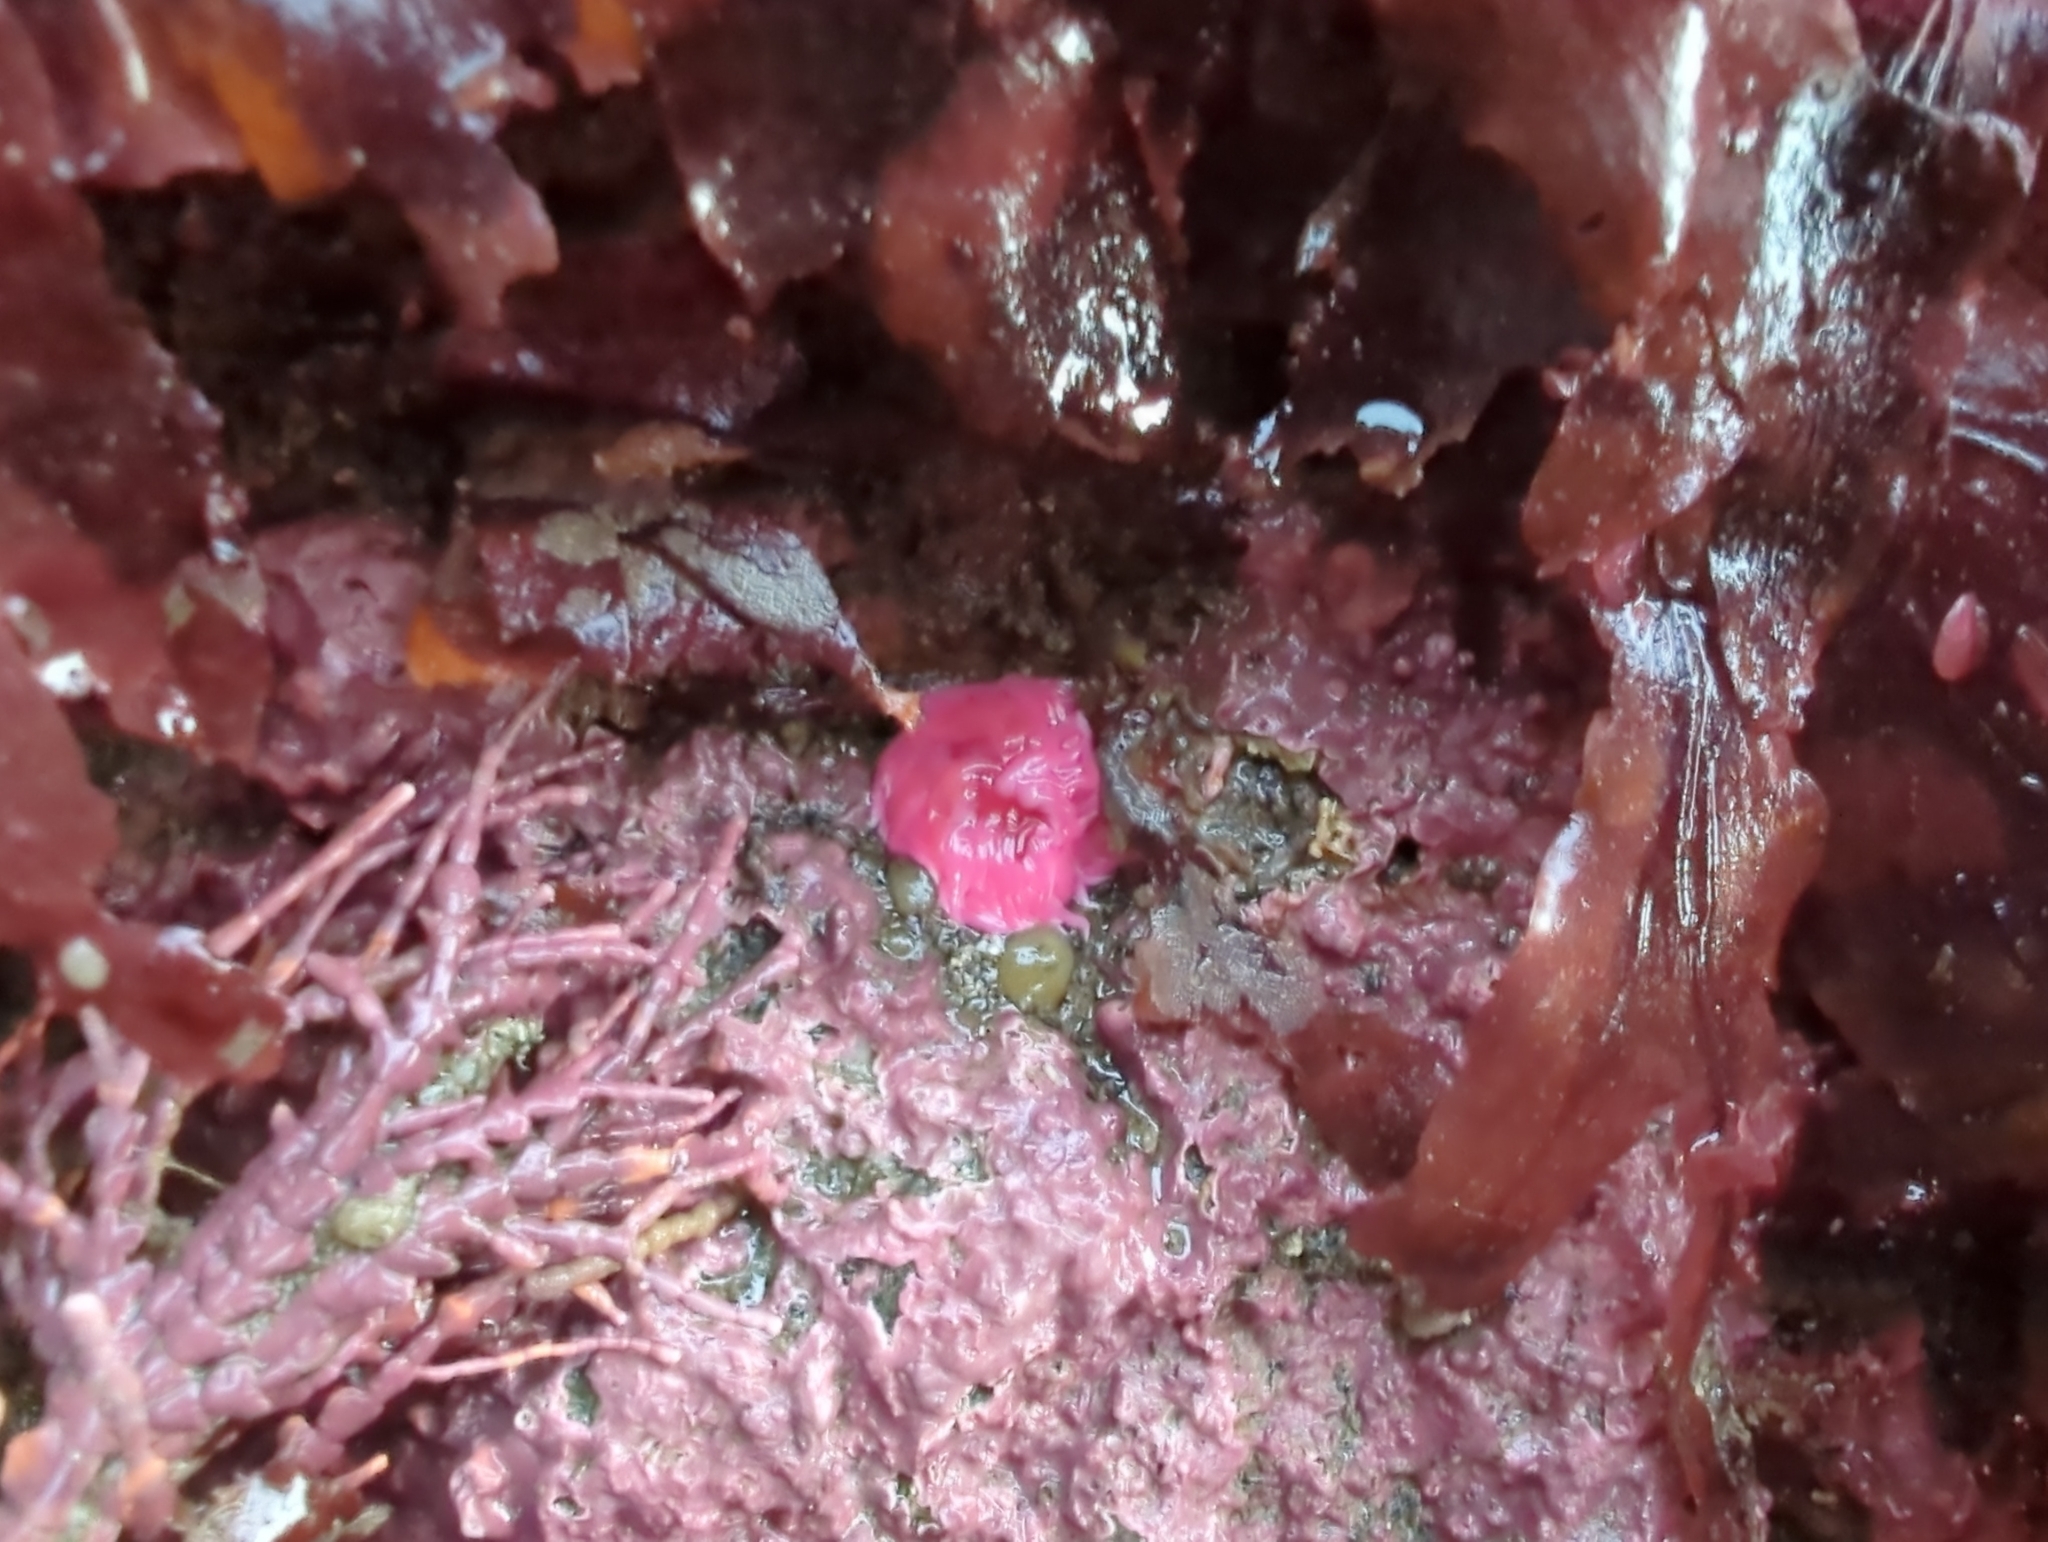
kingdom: Animalia
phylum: Mollusca
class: Gastropoda
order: Nudibranchia
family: Goniodorididae
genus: Okenia
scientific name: Okenia
